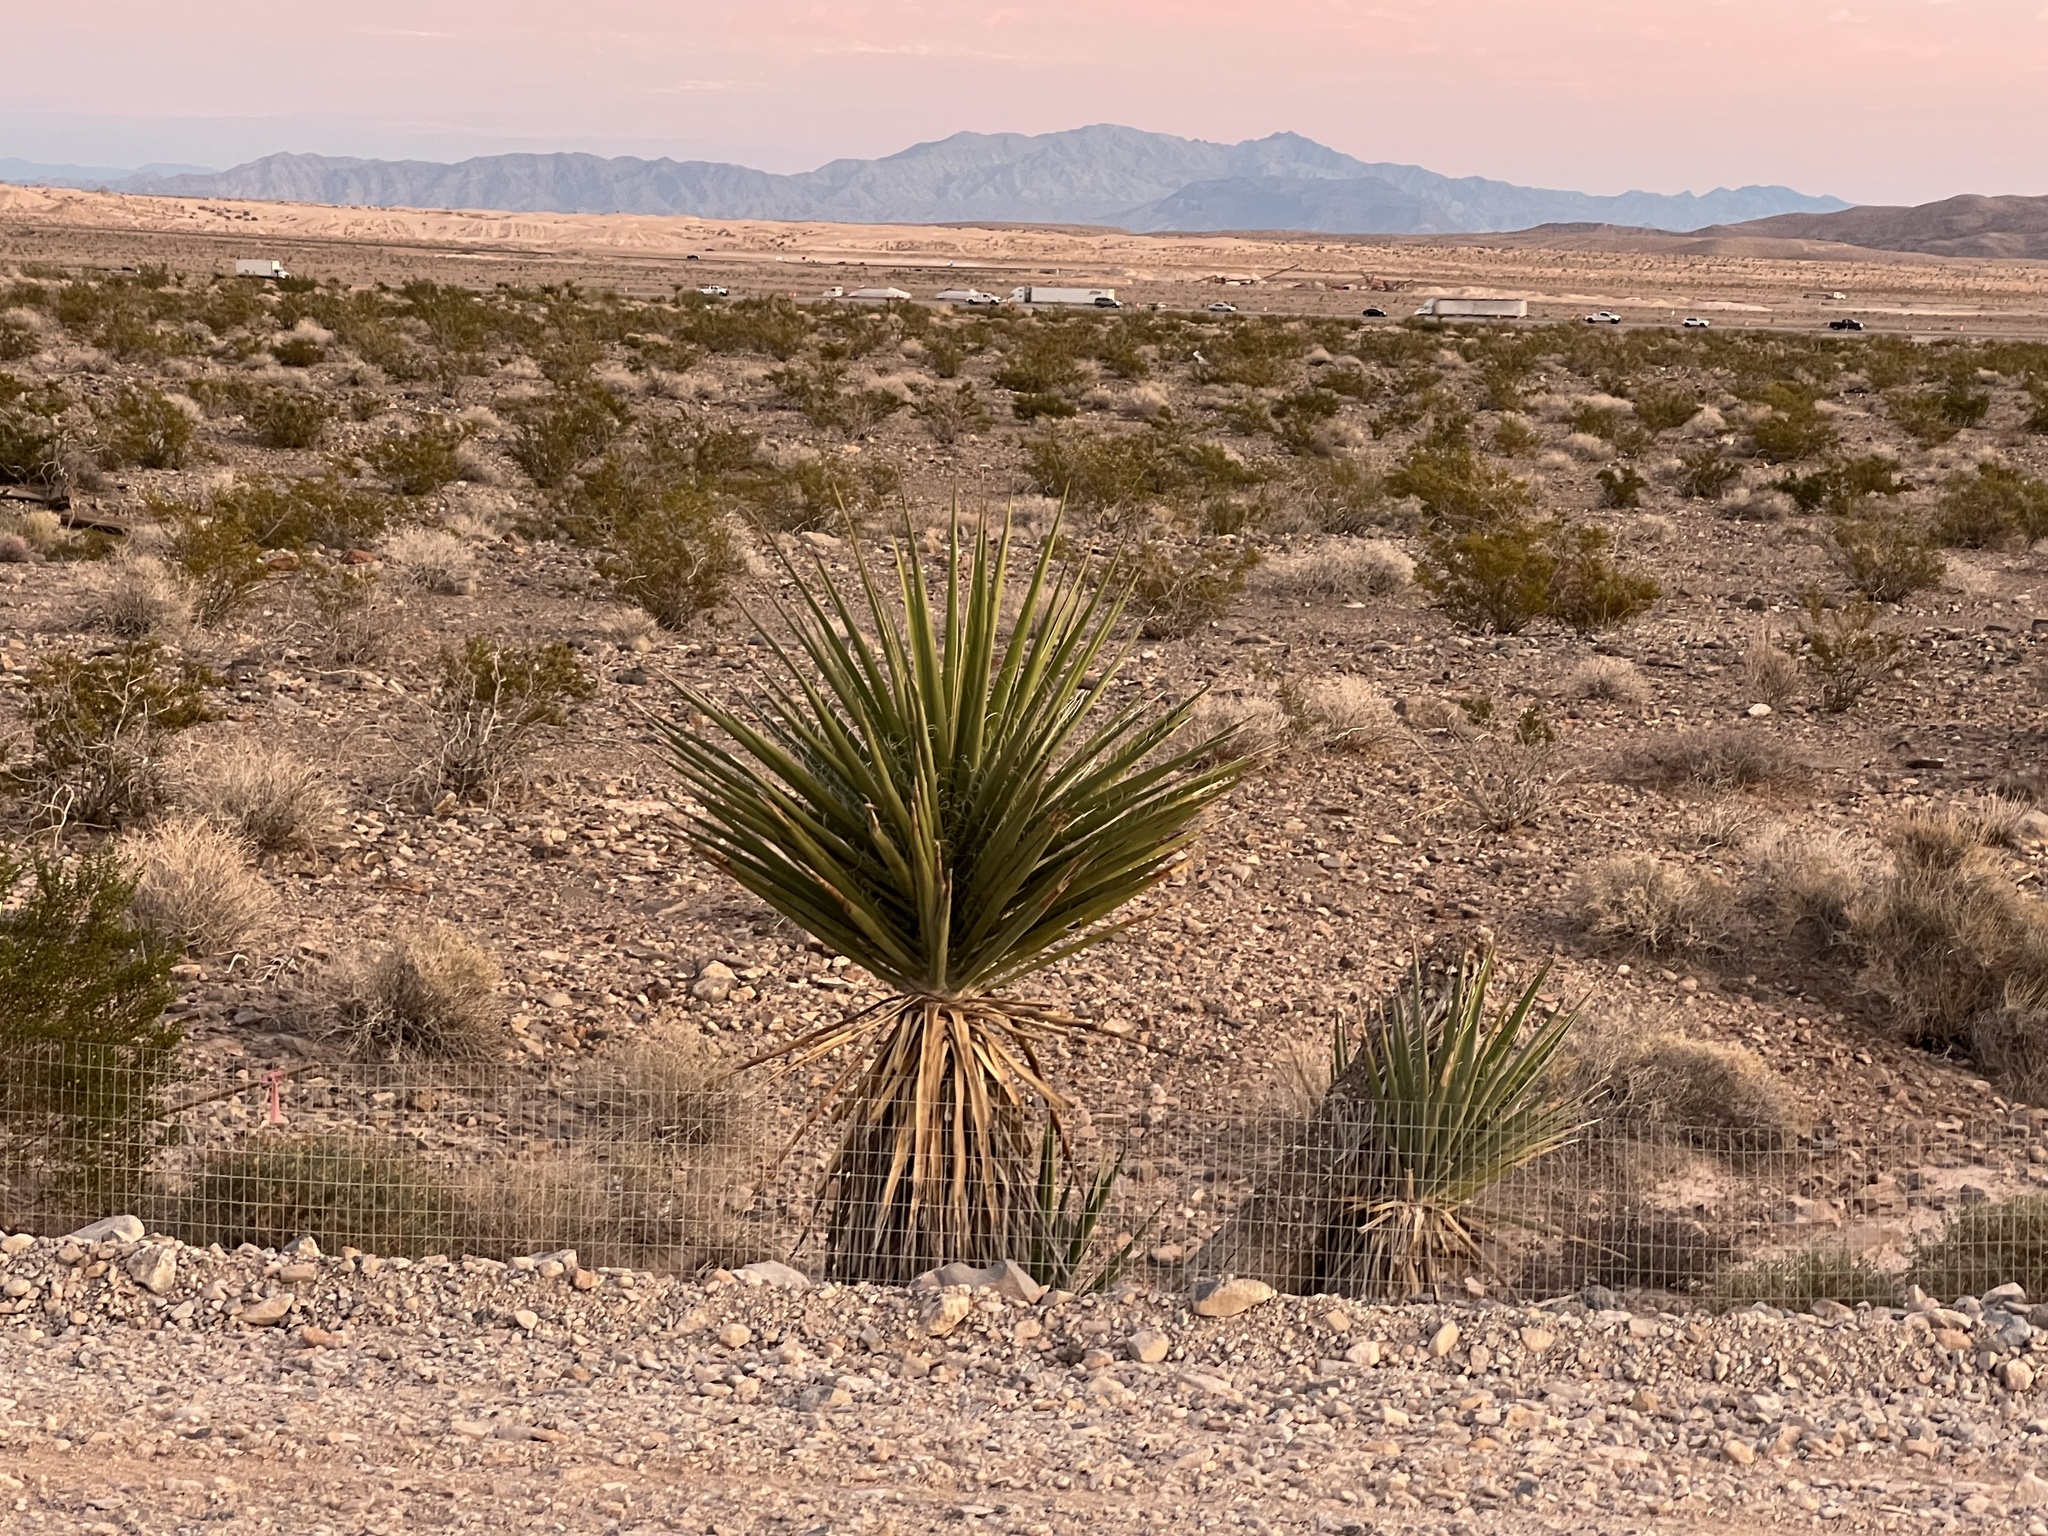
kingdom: Plantae
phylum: Tracheophyta
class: Liliopsida
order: Asparagales
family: Asparagaceae
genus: Yucca
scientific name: Yucca schidigera
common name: Mojave yucca
